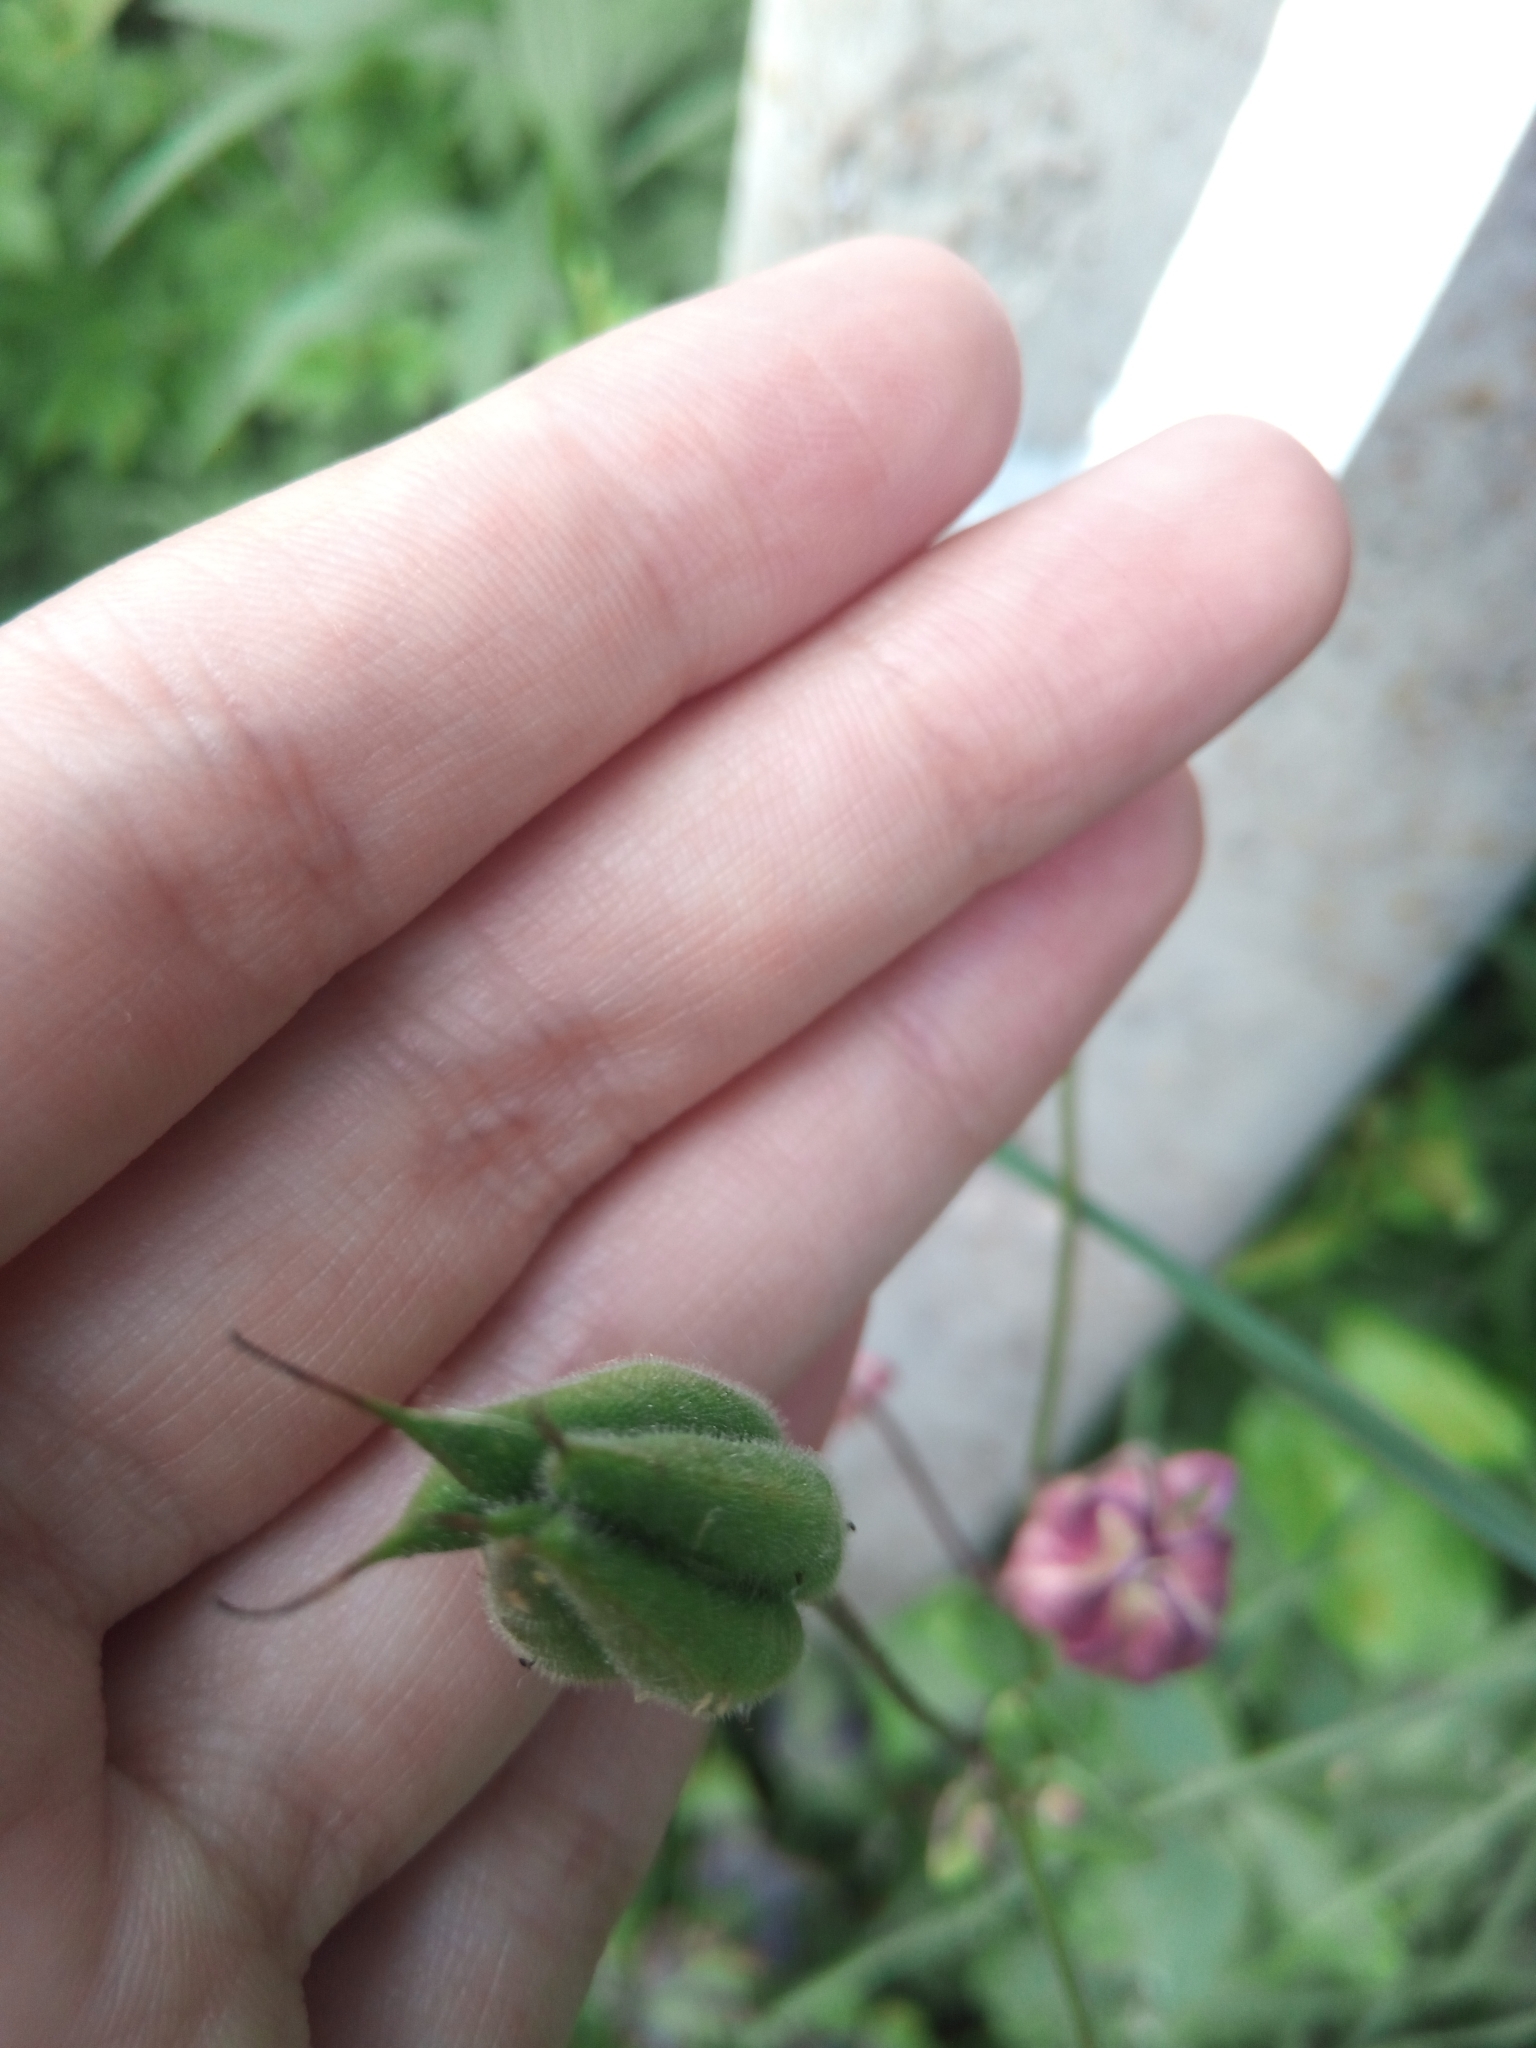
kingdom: Plantae
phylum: Tracheophyta
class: Magnoliopsida
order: Ranunculales
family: Ranunculaceae
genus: Aquilegia
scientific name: Aquilegia vulgaris
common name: Columbine
